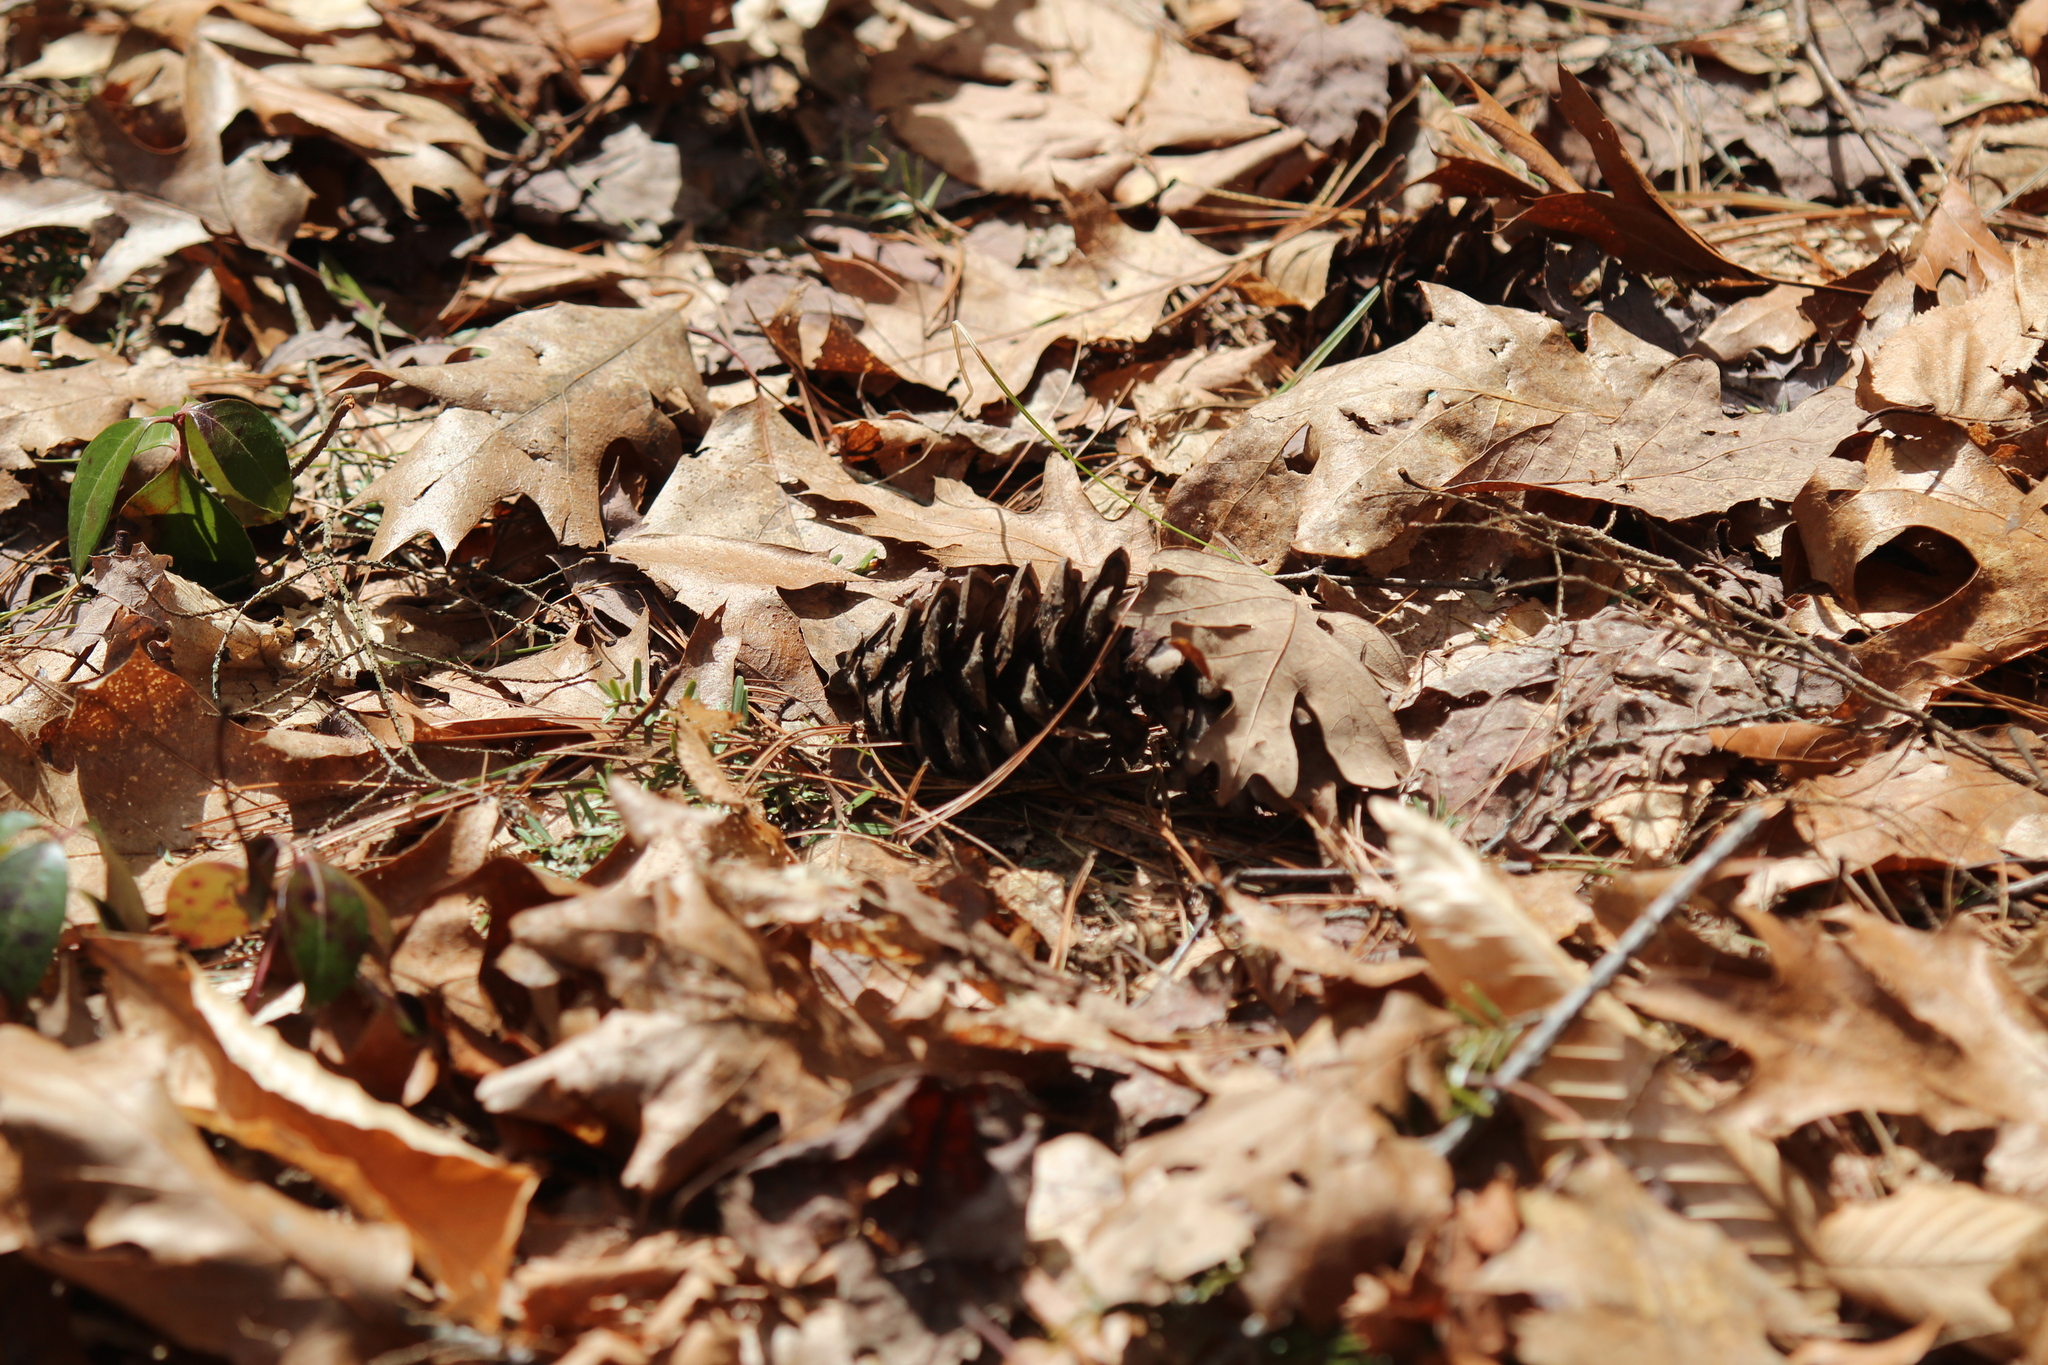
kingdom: Plantae
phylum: Tracheophyta
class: Pinopsida
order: Pinales
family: Pinaceae
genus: Pinus
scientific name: Pinus strobus
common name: Weymouth pine
